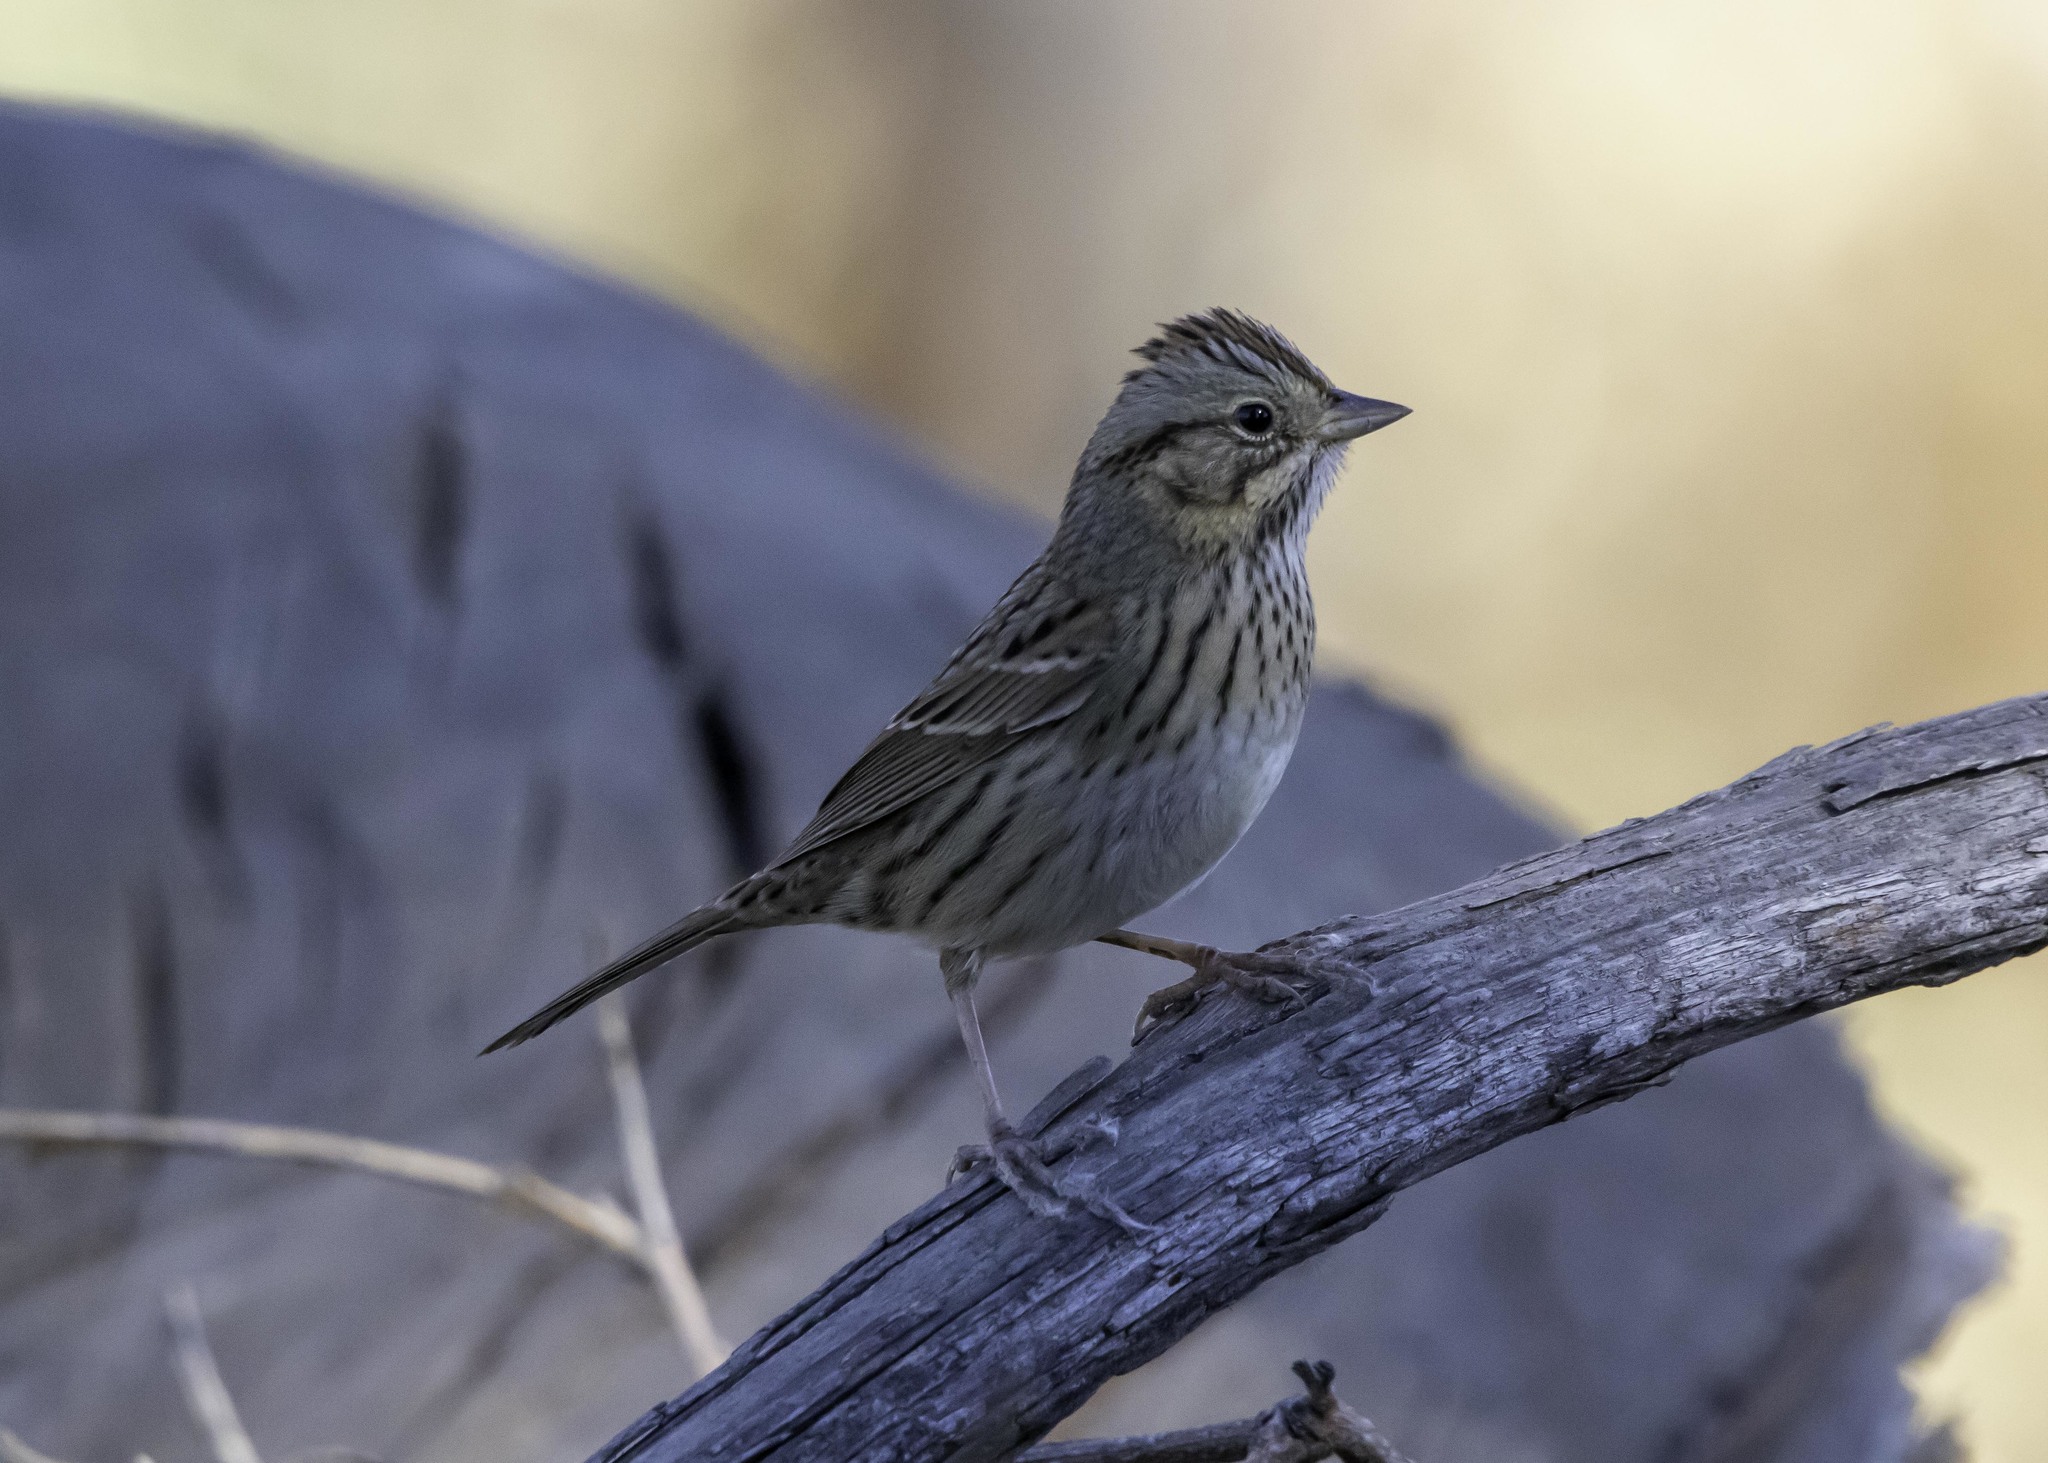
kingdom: Animalia
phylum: Chordata
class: Aves
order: Passeriformes
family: Passerellidae
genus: Melospiza
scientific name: Melospiza lincolnii
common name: Lincoln's sparrow
